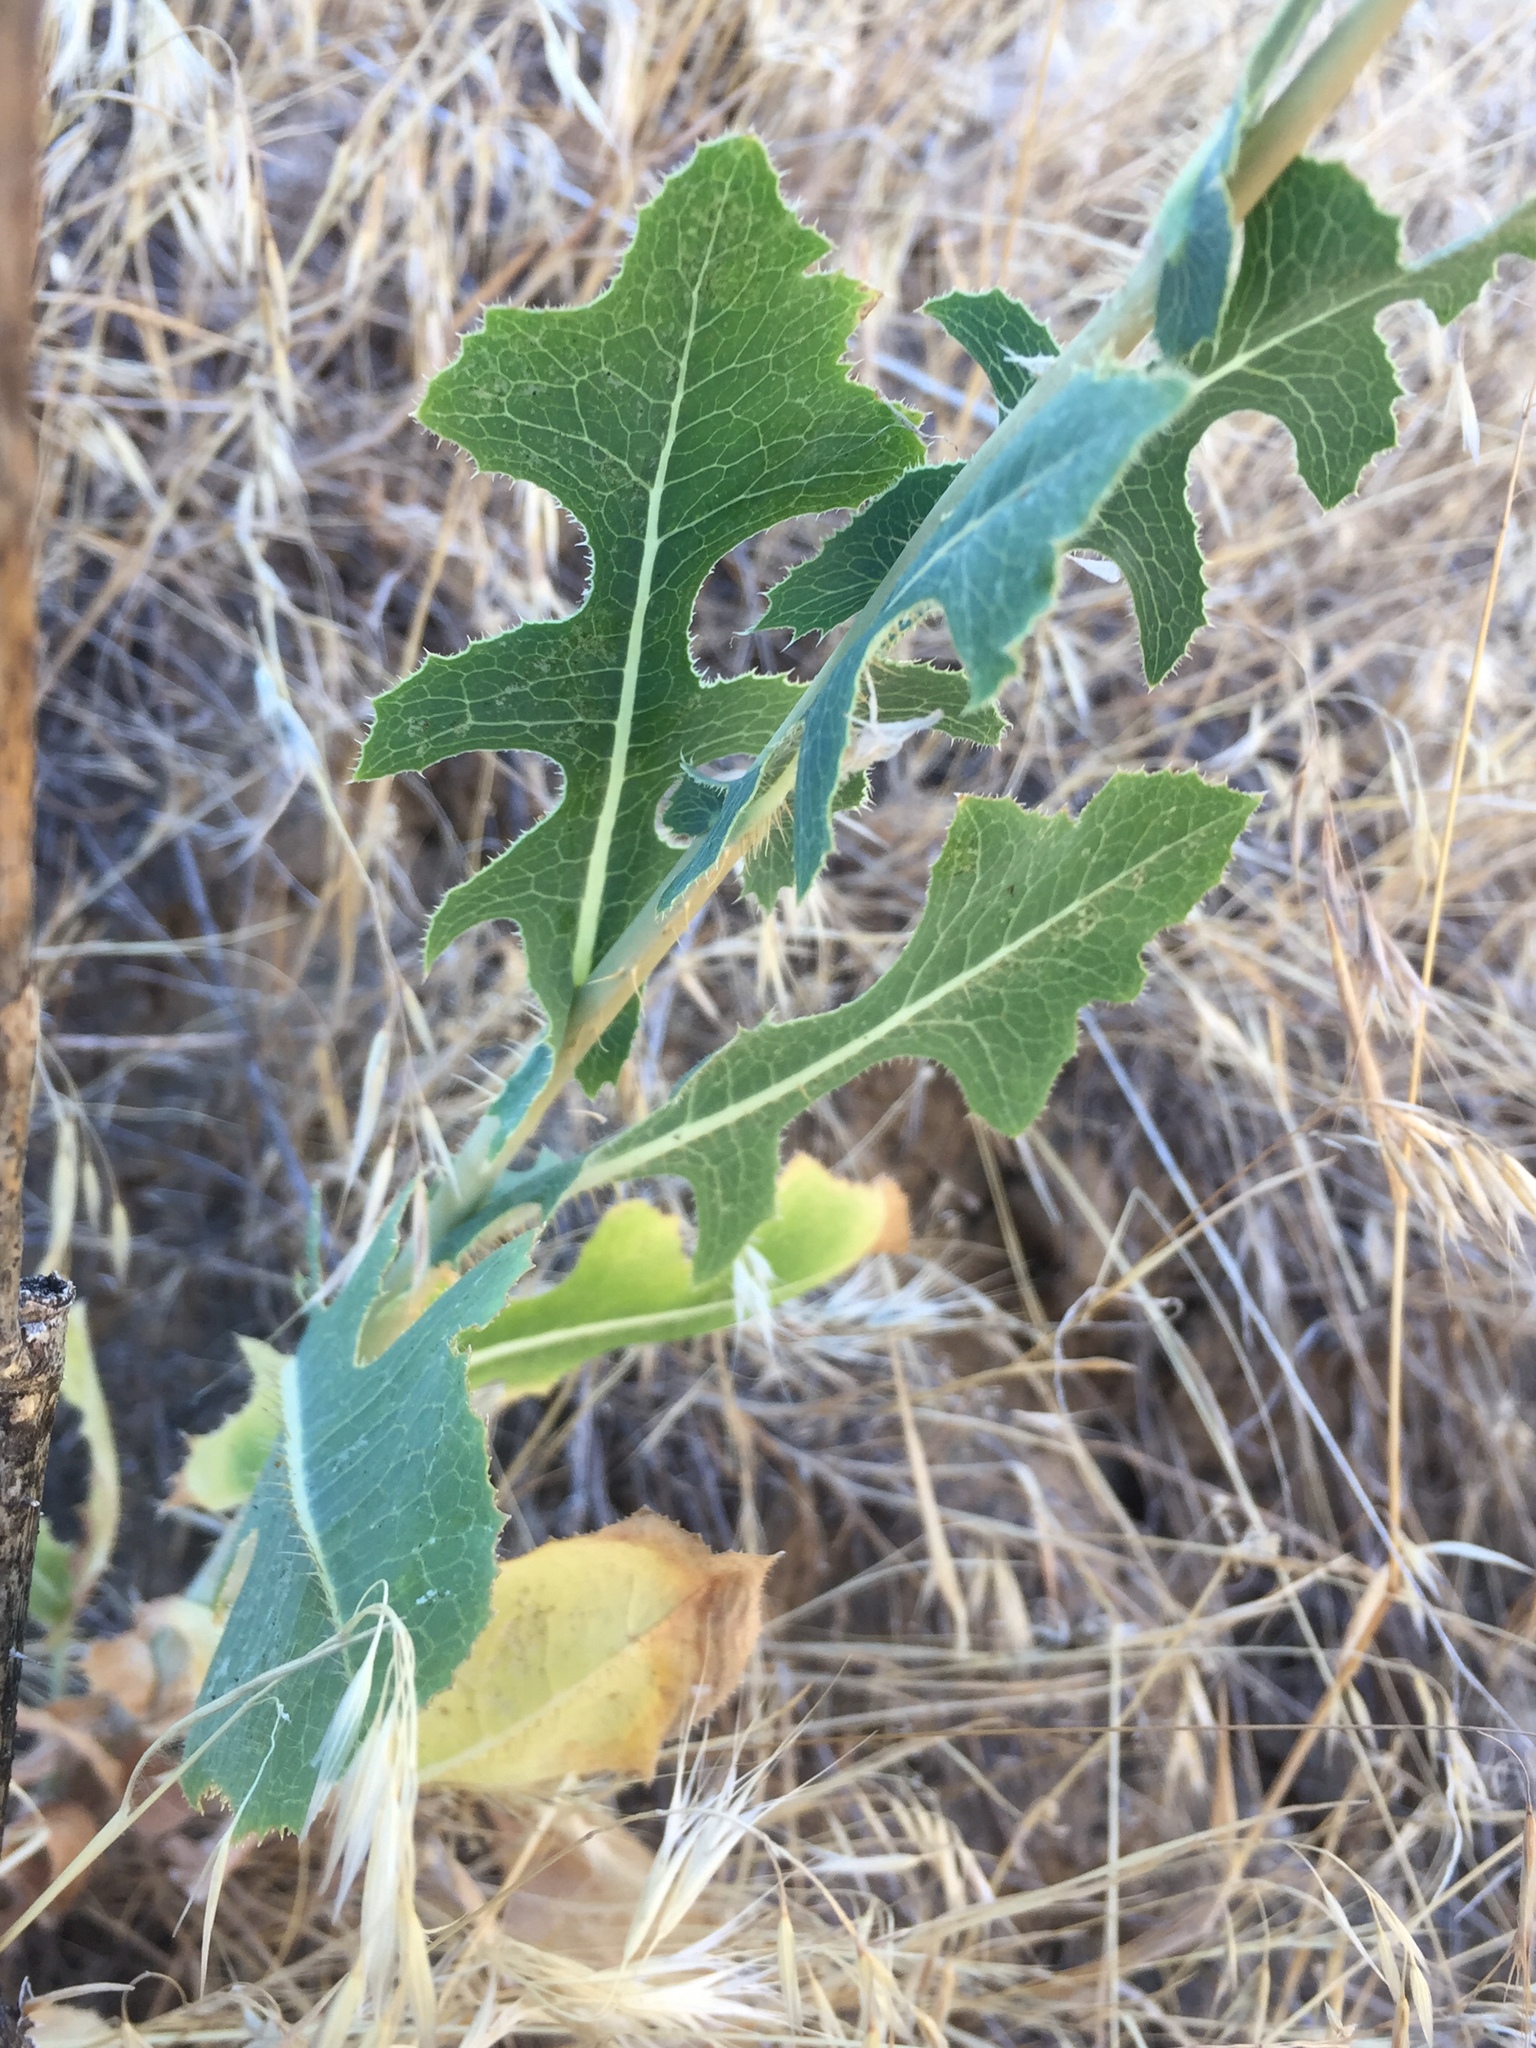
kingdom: Plantae
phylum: Tracheophyta
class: Magnoliopsida
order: Asterales
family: Asteraceae
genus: Lactuca
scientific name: Lactuca serriola
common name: Prickly lettuce
